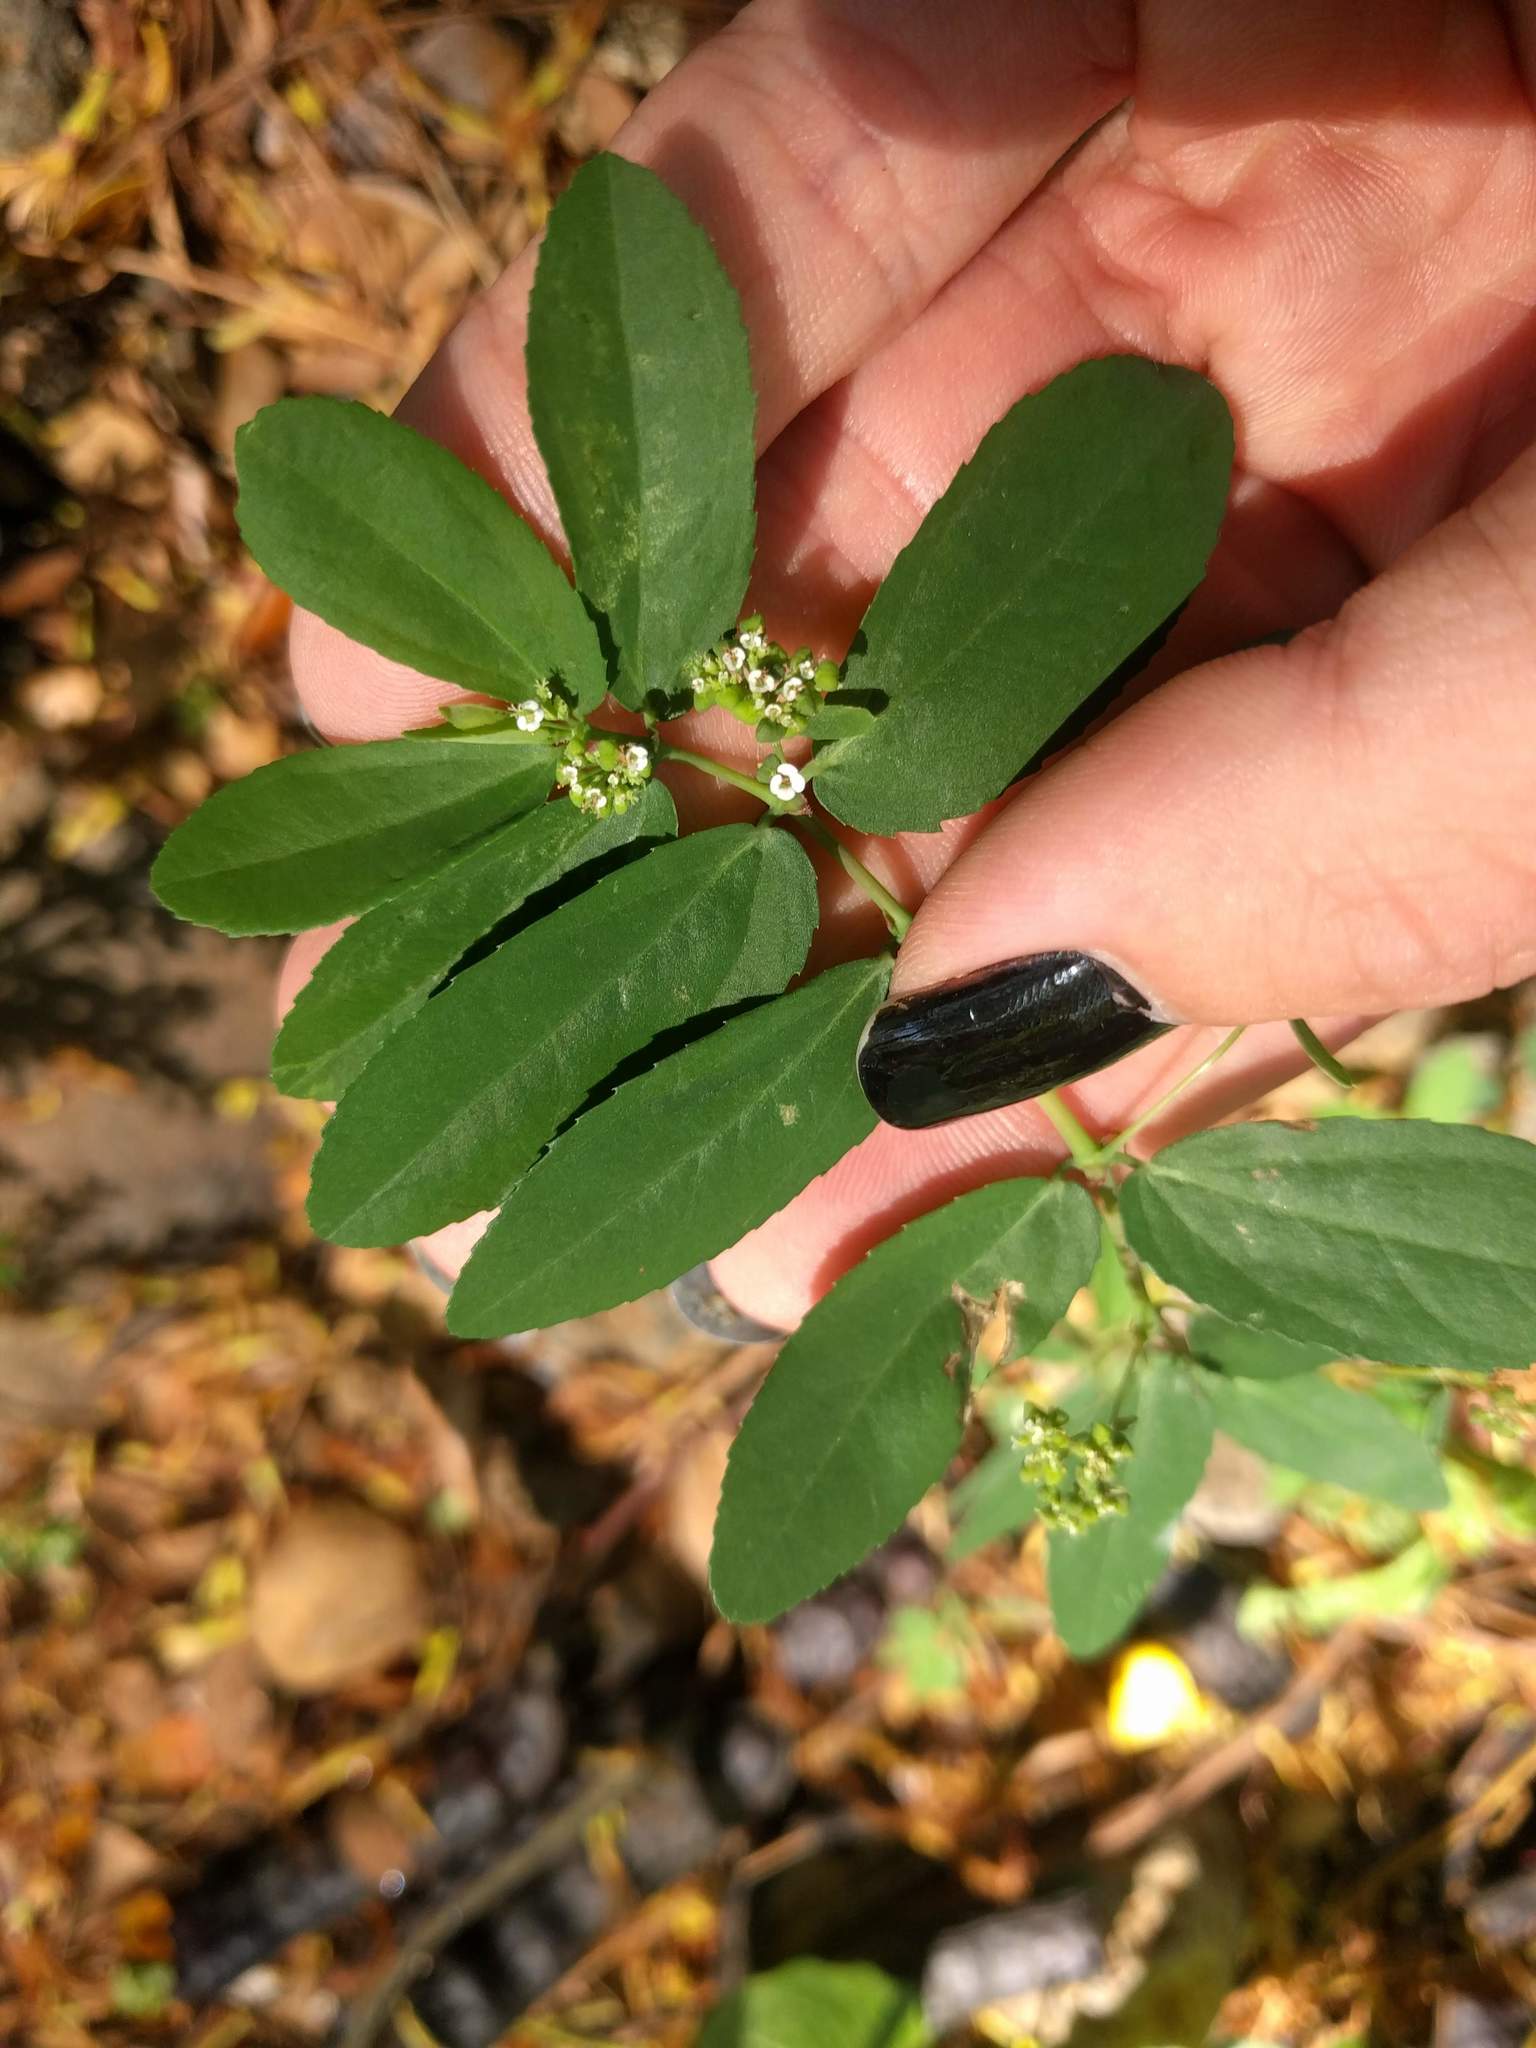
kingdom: Plantae
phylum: Tracheophyta
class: Magnoliopsida
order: Malpighiales
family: Euphorbiaceae
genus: Euphorbia
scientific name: Euphorbia hypericifolia
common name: Graceful sandmat
